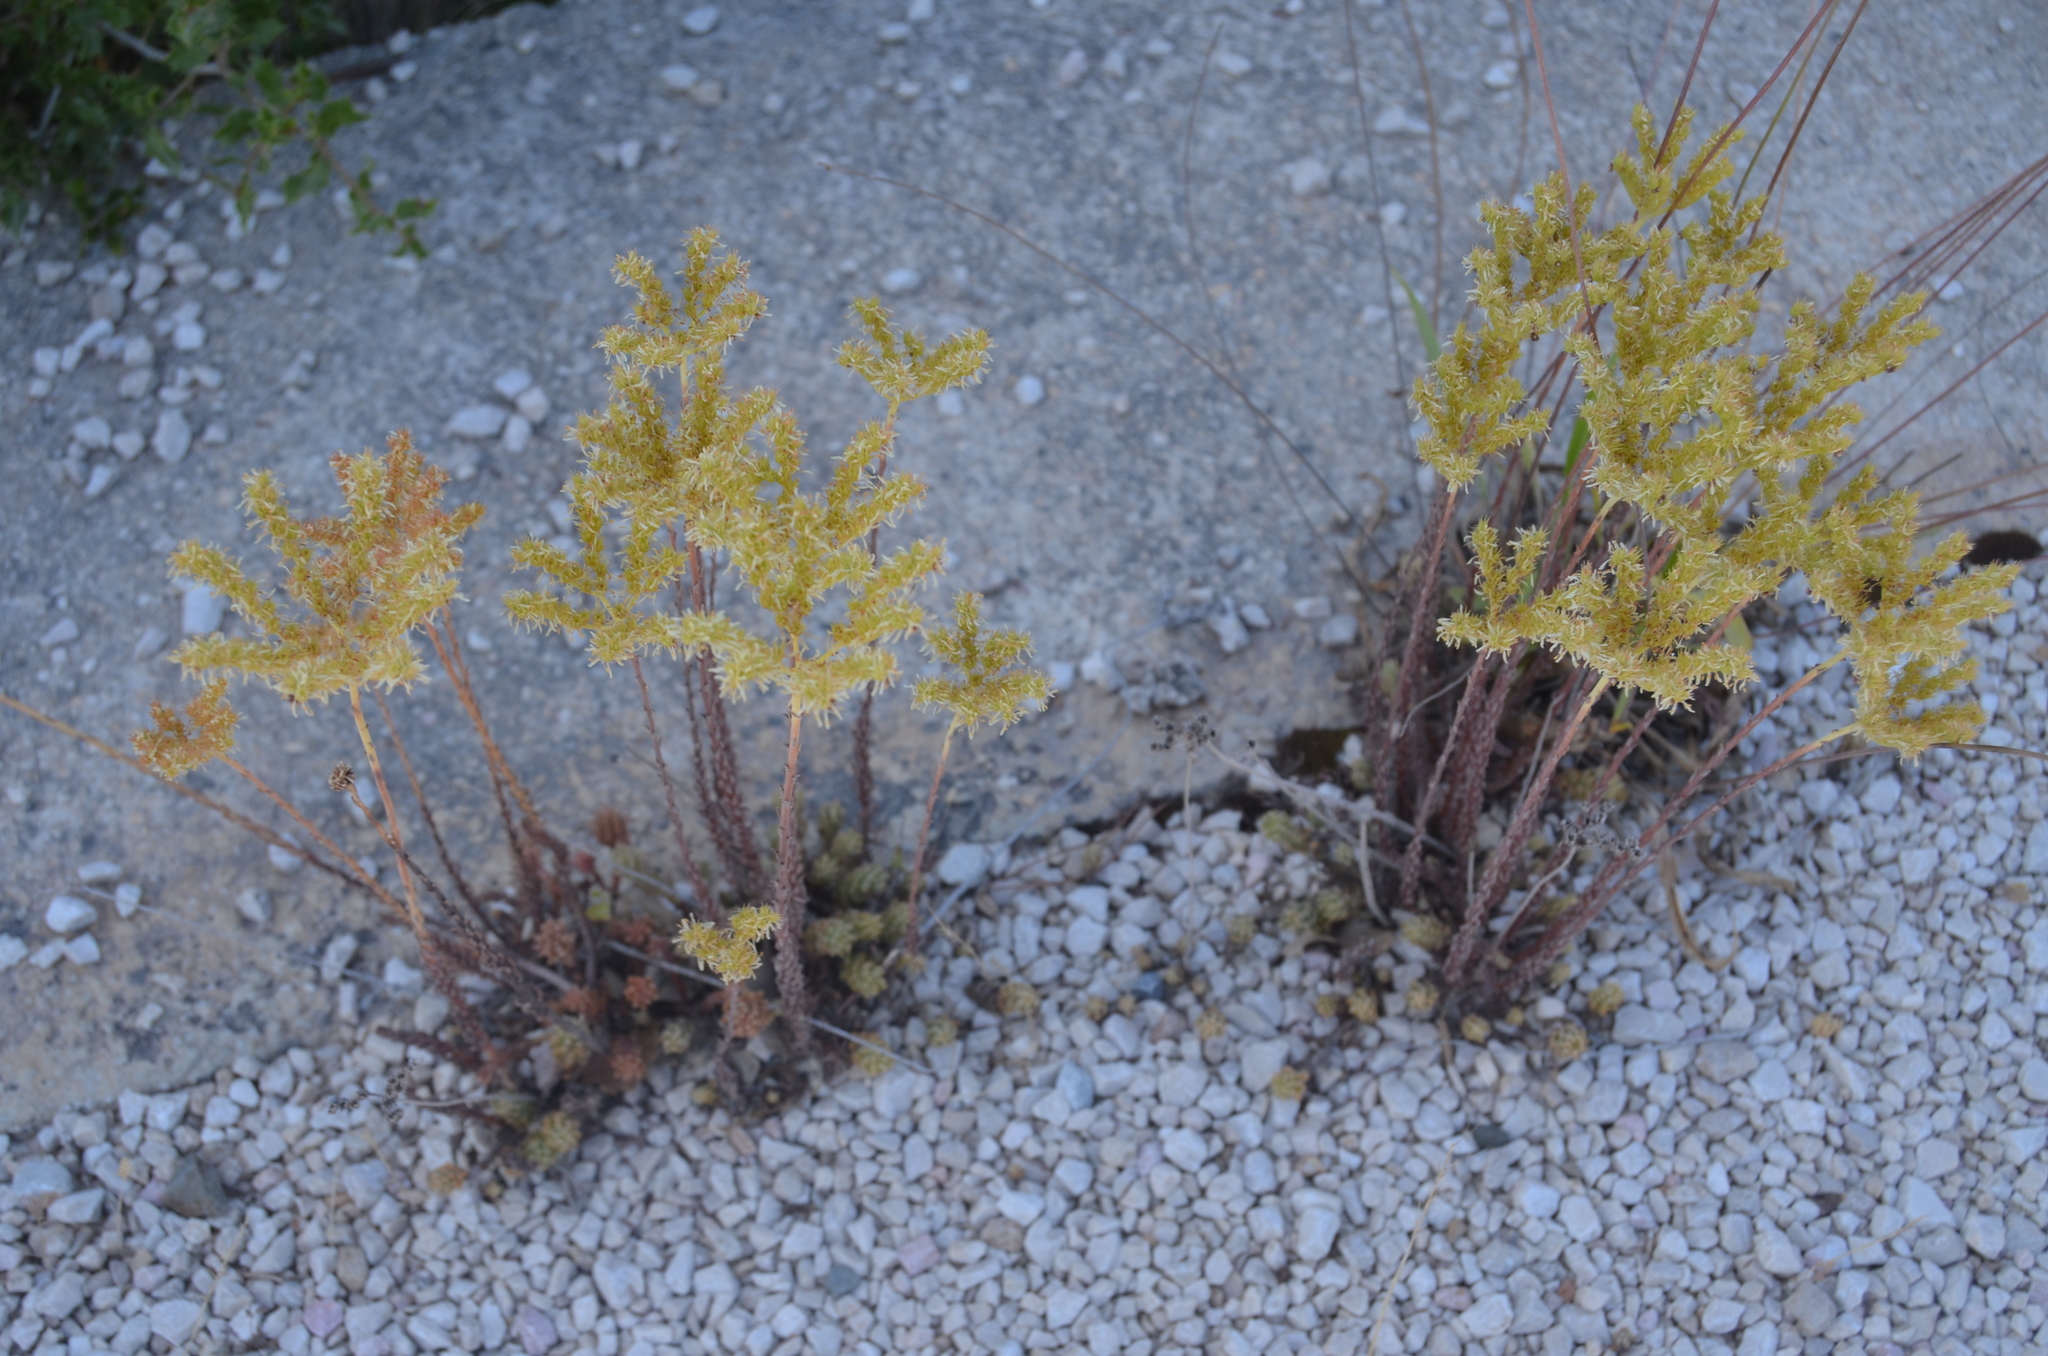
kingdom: Plantae
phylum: Tracheophyta
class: Magnoliopsida
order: Saxifragales
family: Crassulaceae
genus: Petrosedum
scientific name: Petrosedum sediforme
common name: Pale stonecrop
